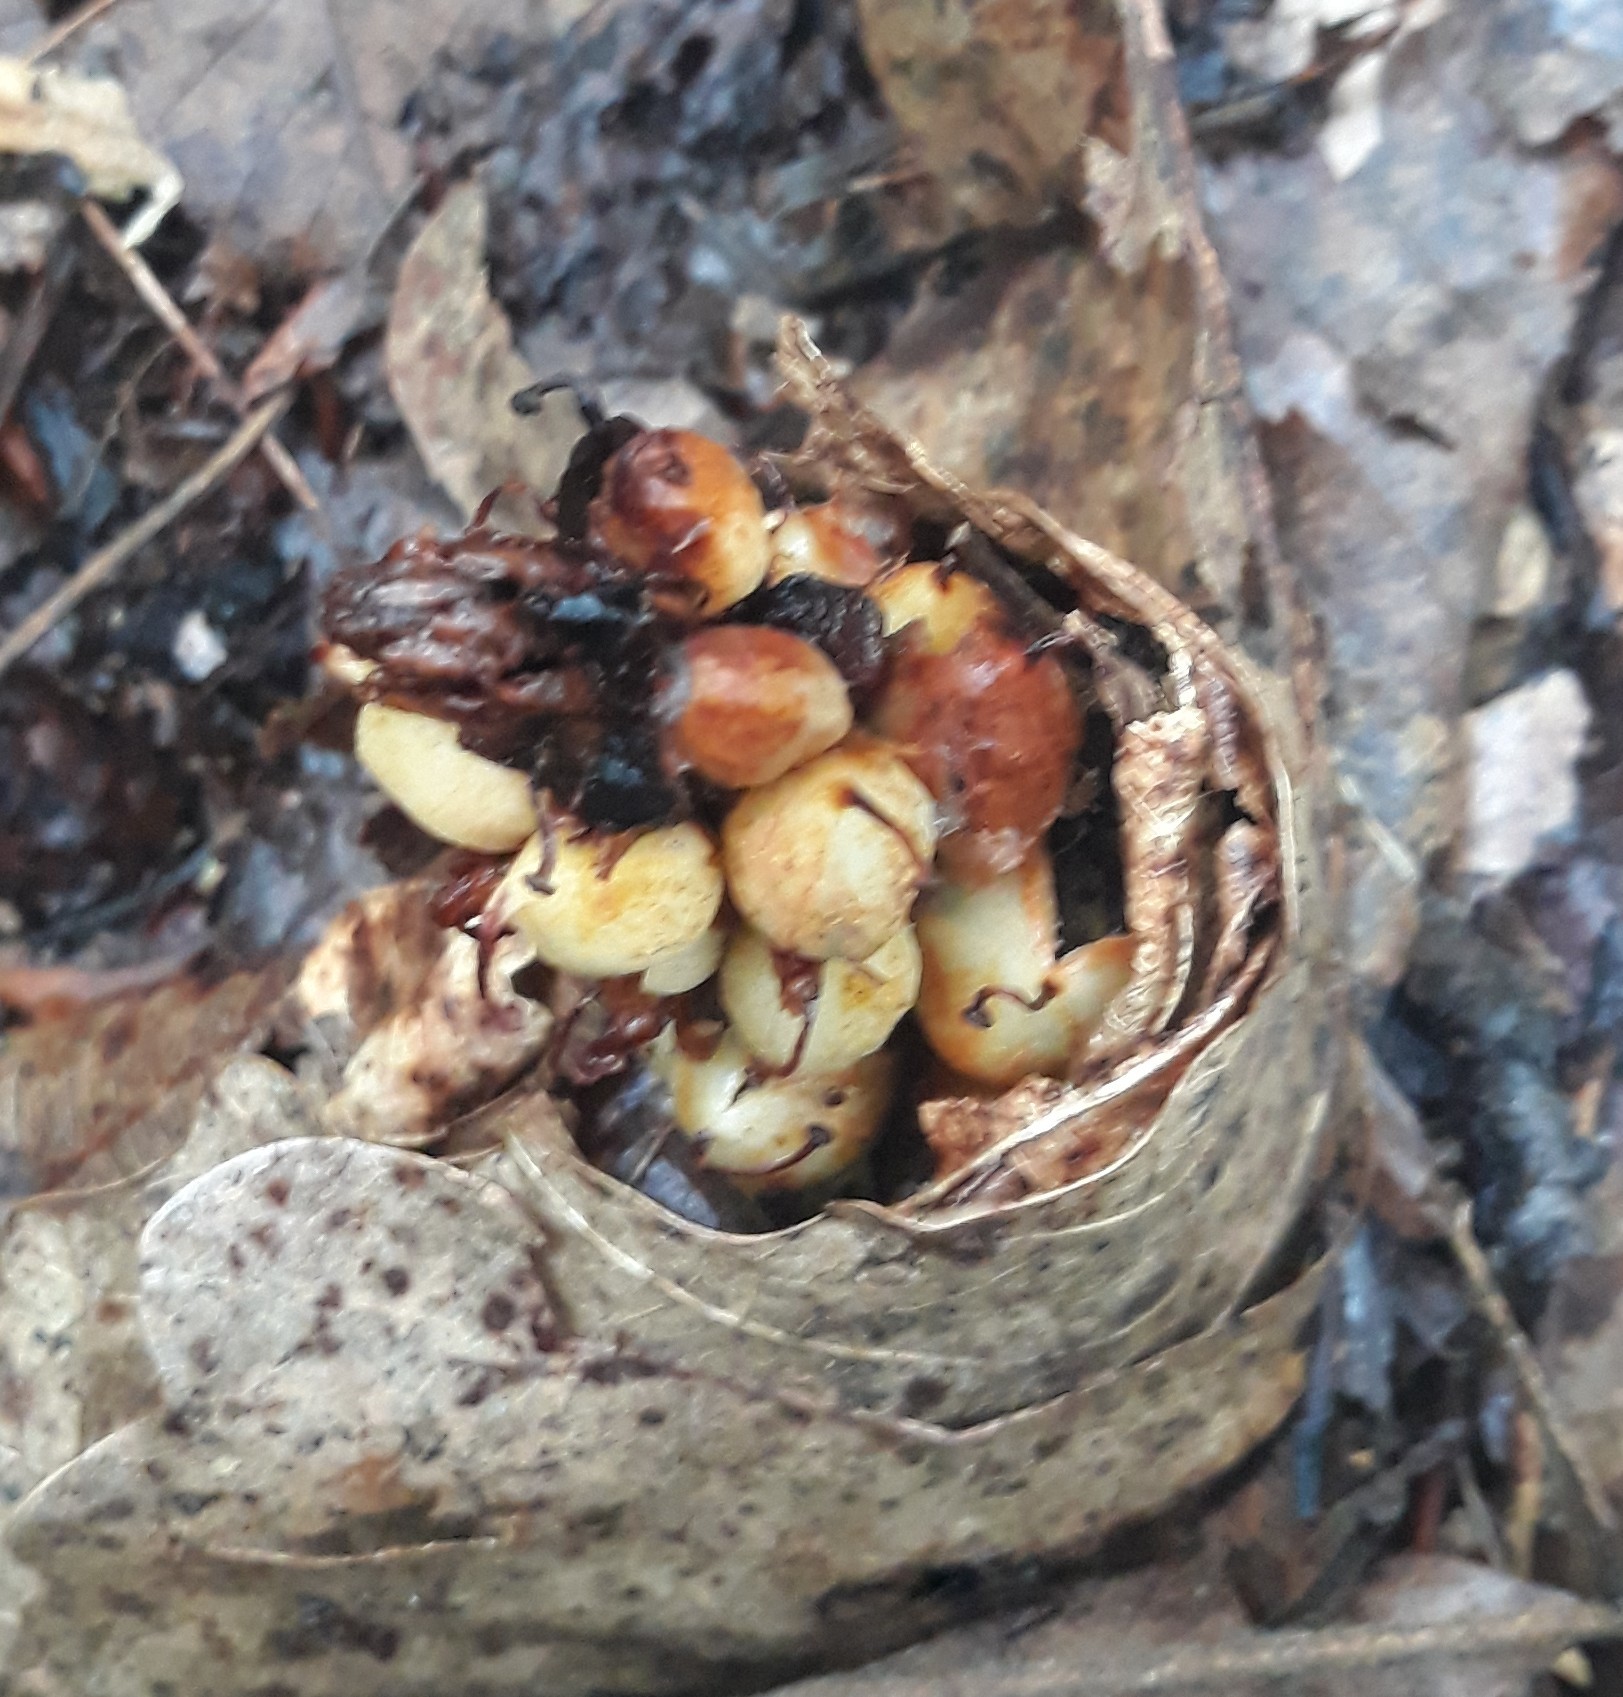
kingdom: Plantae
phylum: Tracheophyta
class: Magnoliopsida
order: Lamiales
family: Orobanchaceae
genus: Conopholis
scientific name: Conopholis americana
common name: American cancer-root
